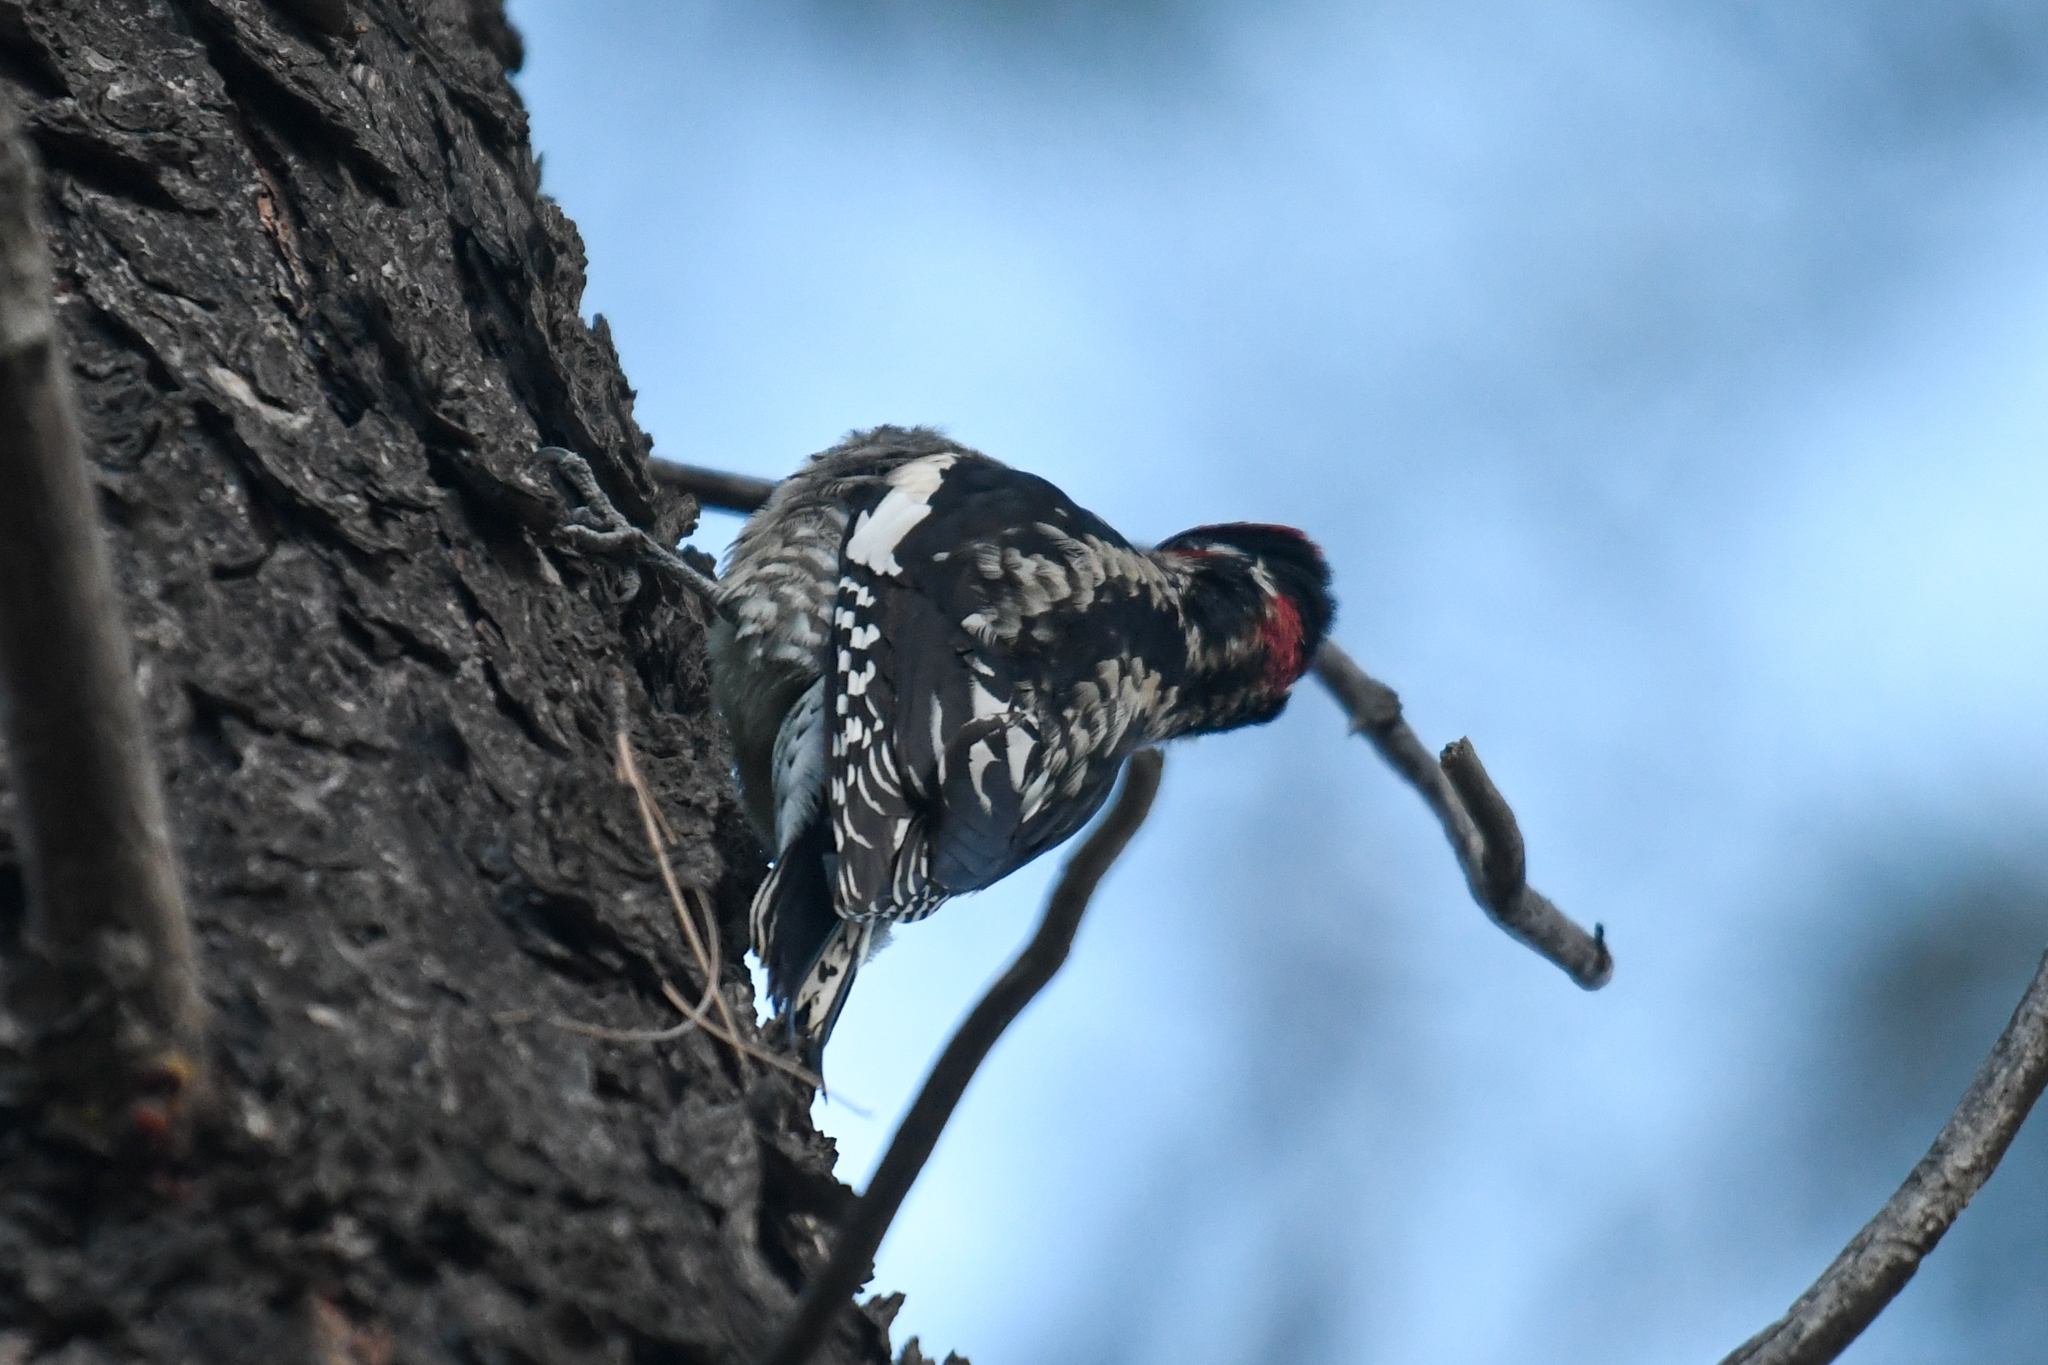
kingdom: Animalia
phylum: Chordata
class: Aves
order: Piciformes
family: Picidae
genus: Sphyrapicus
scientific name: Sphyrapicus nuchalis
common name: Red-naped sapsucker
